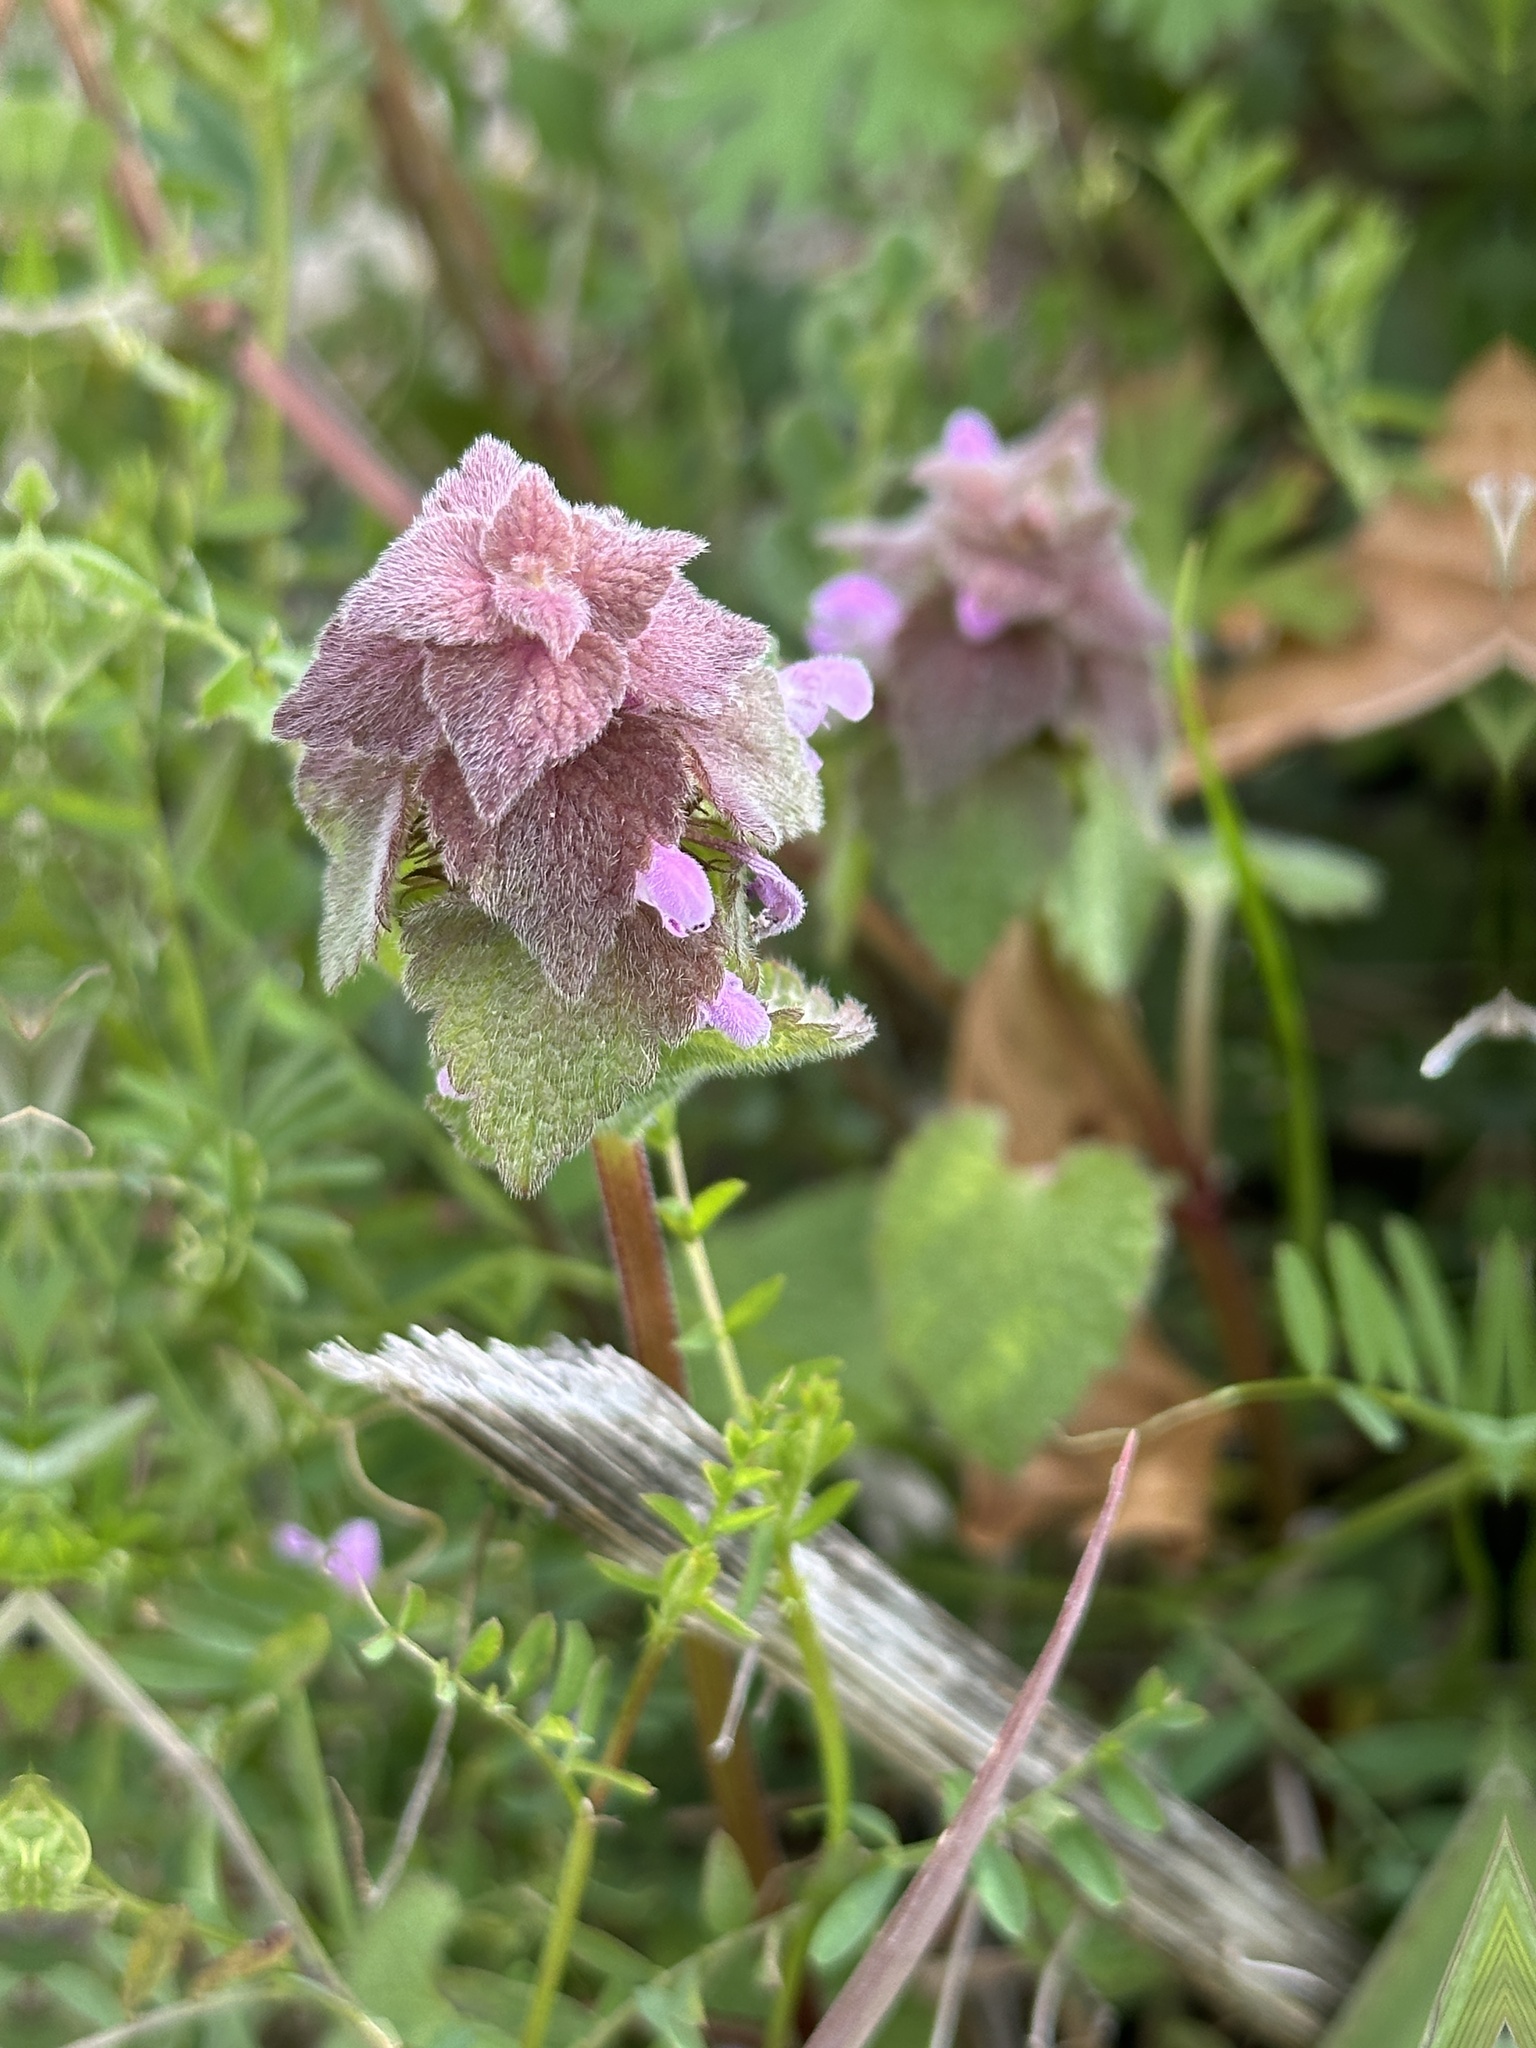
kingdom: Plantae
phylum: Tracheophyta
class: Magnoliopsida
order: Lamiales
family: Lamiaceae
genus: Lamium
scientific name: Lamium purpureum
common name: Red dead-nettle
